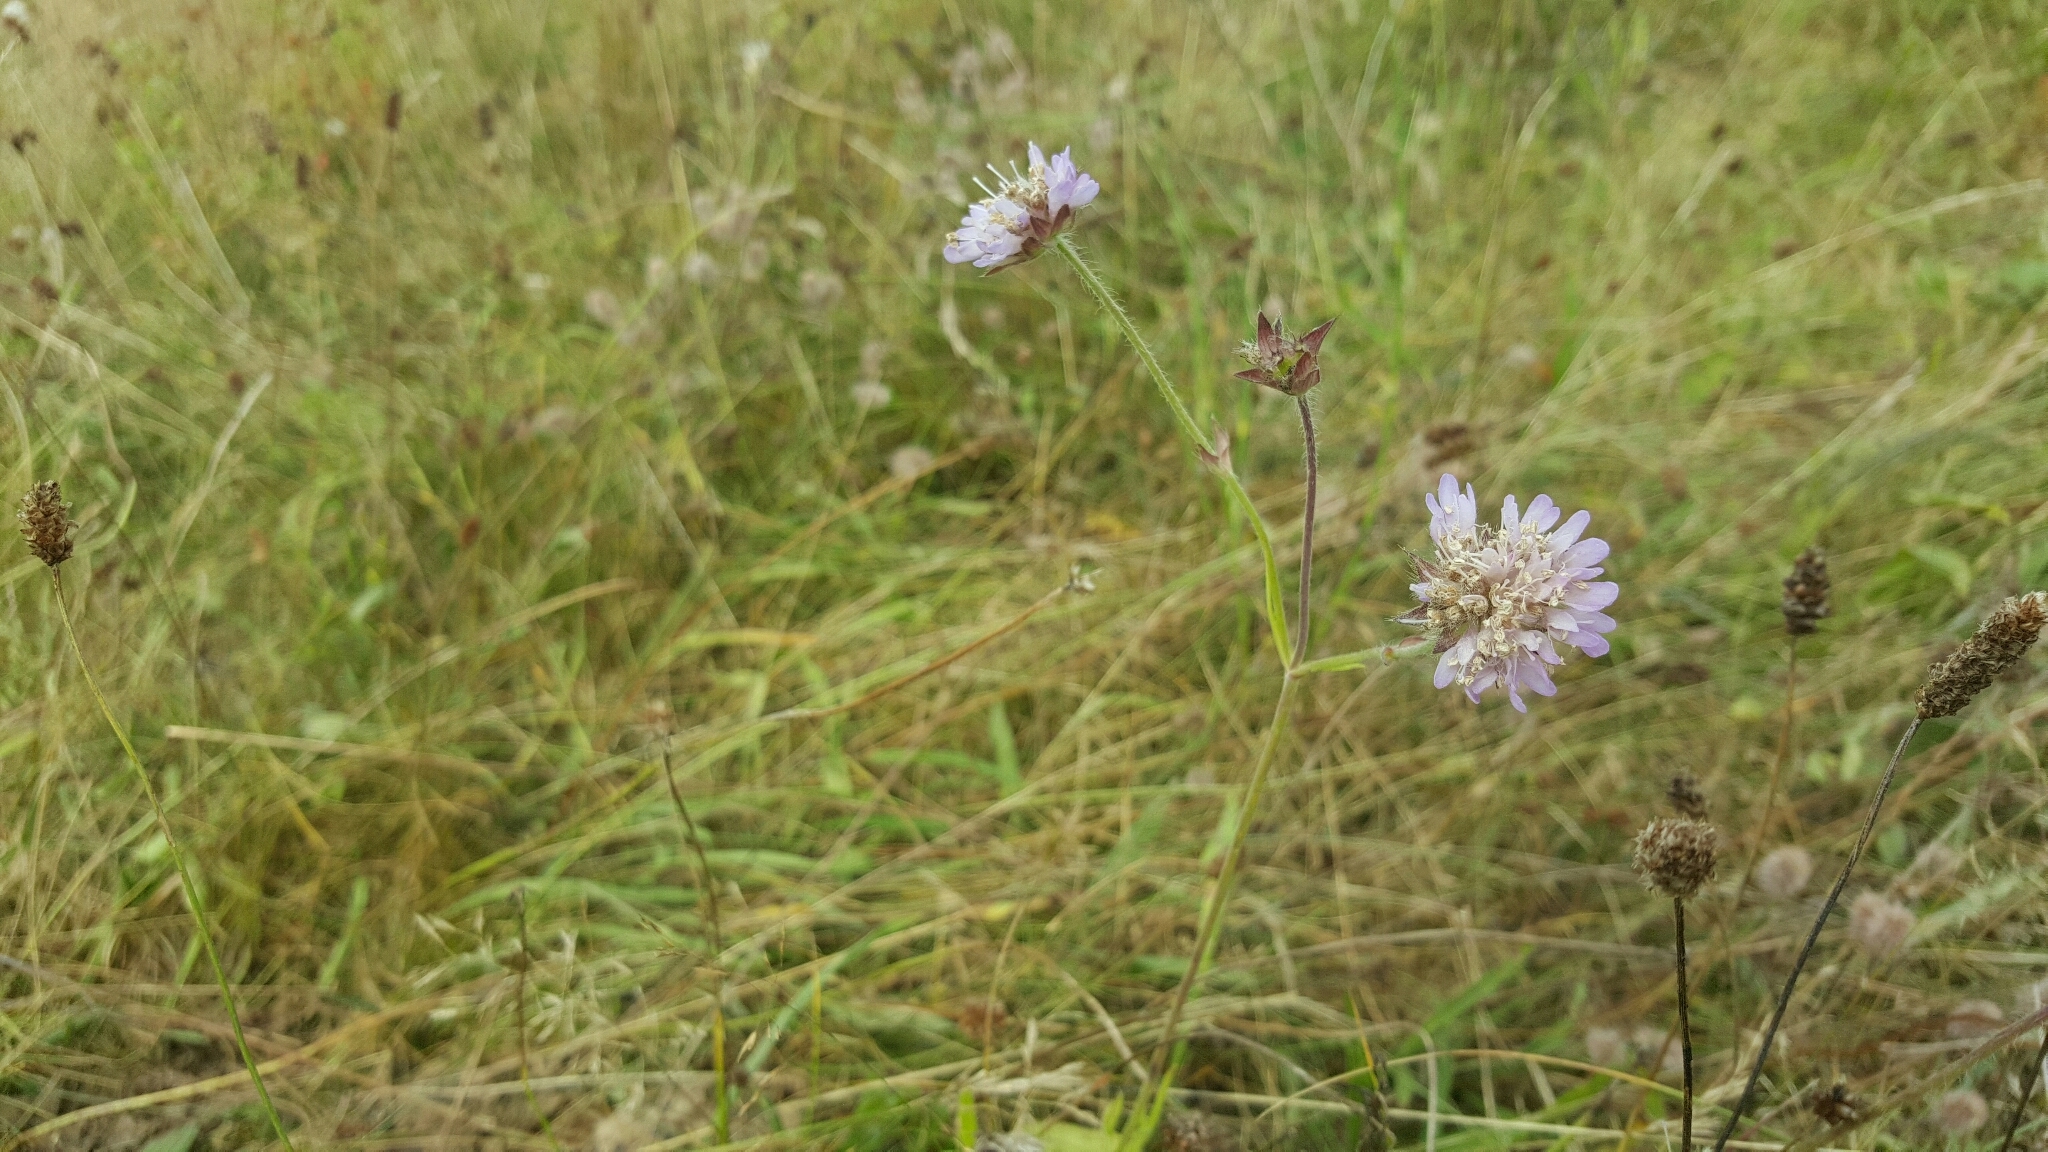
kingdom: Plantae
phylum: Tracheophyta
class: Magnoliopsida
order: Dipsacales
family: Caprifoliaceae
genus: Knautia
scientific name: Knautia arvensis
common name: Field scabiosa
